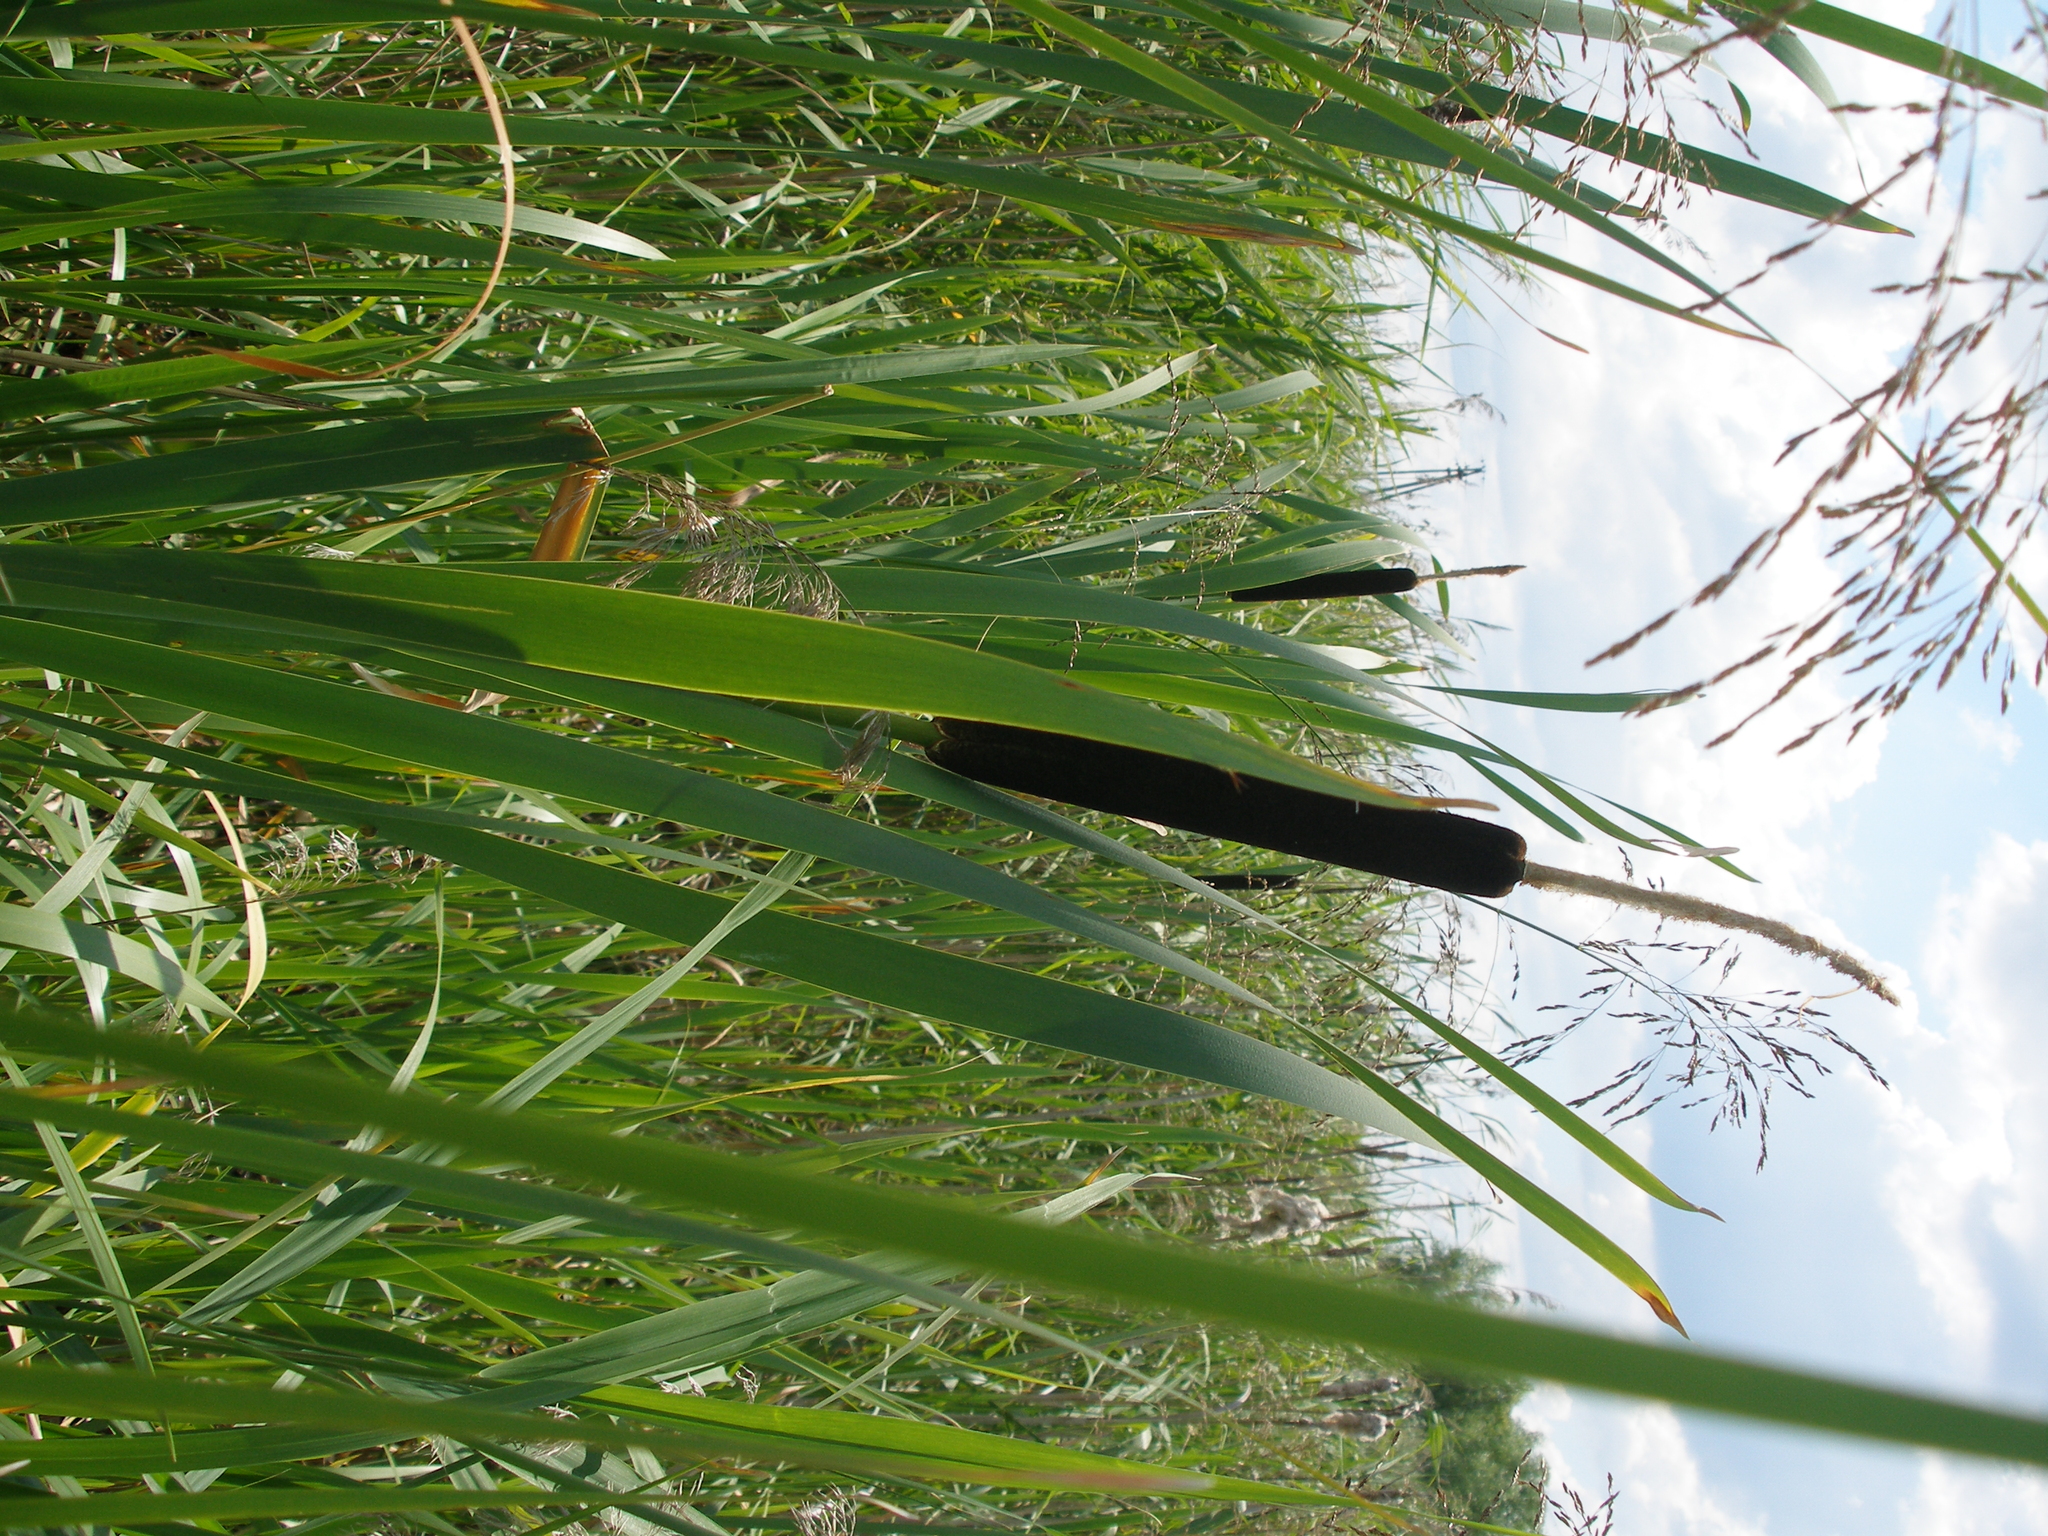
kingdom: Plantae
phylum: Tracheophyta
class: Liliopsida
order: Poales
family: Typhaceae
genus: Typha
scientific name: Typha latifolia
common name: Broadleaf cattail
